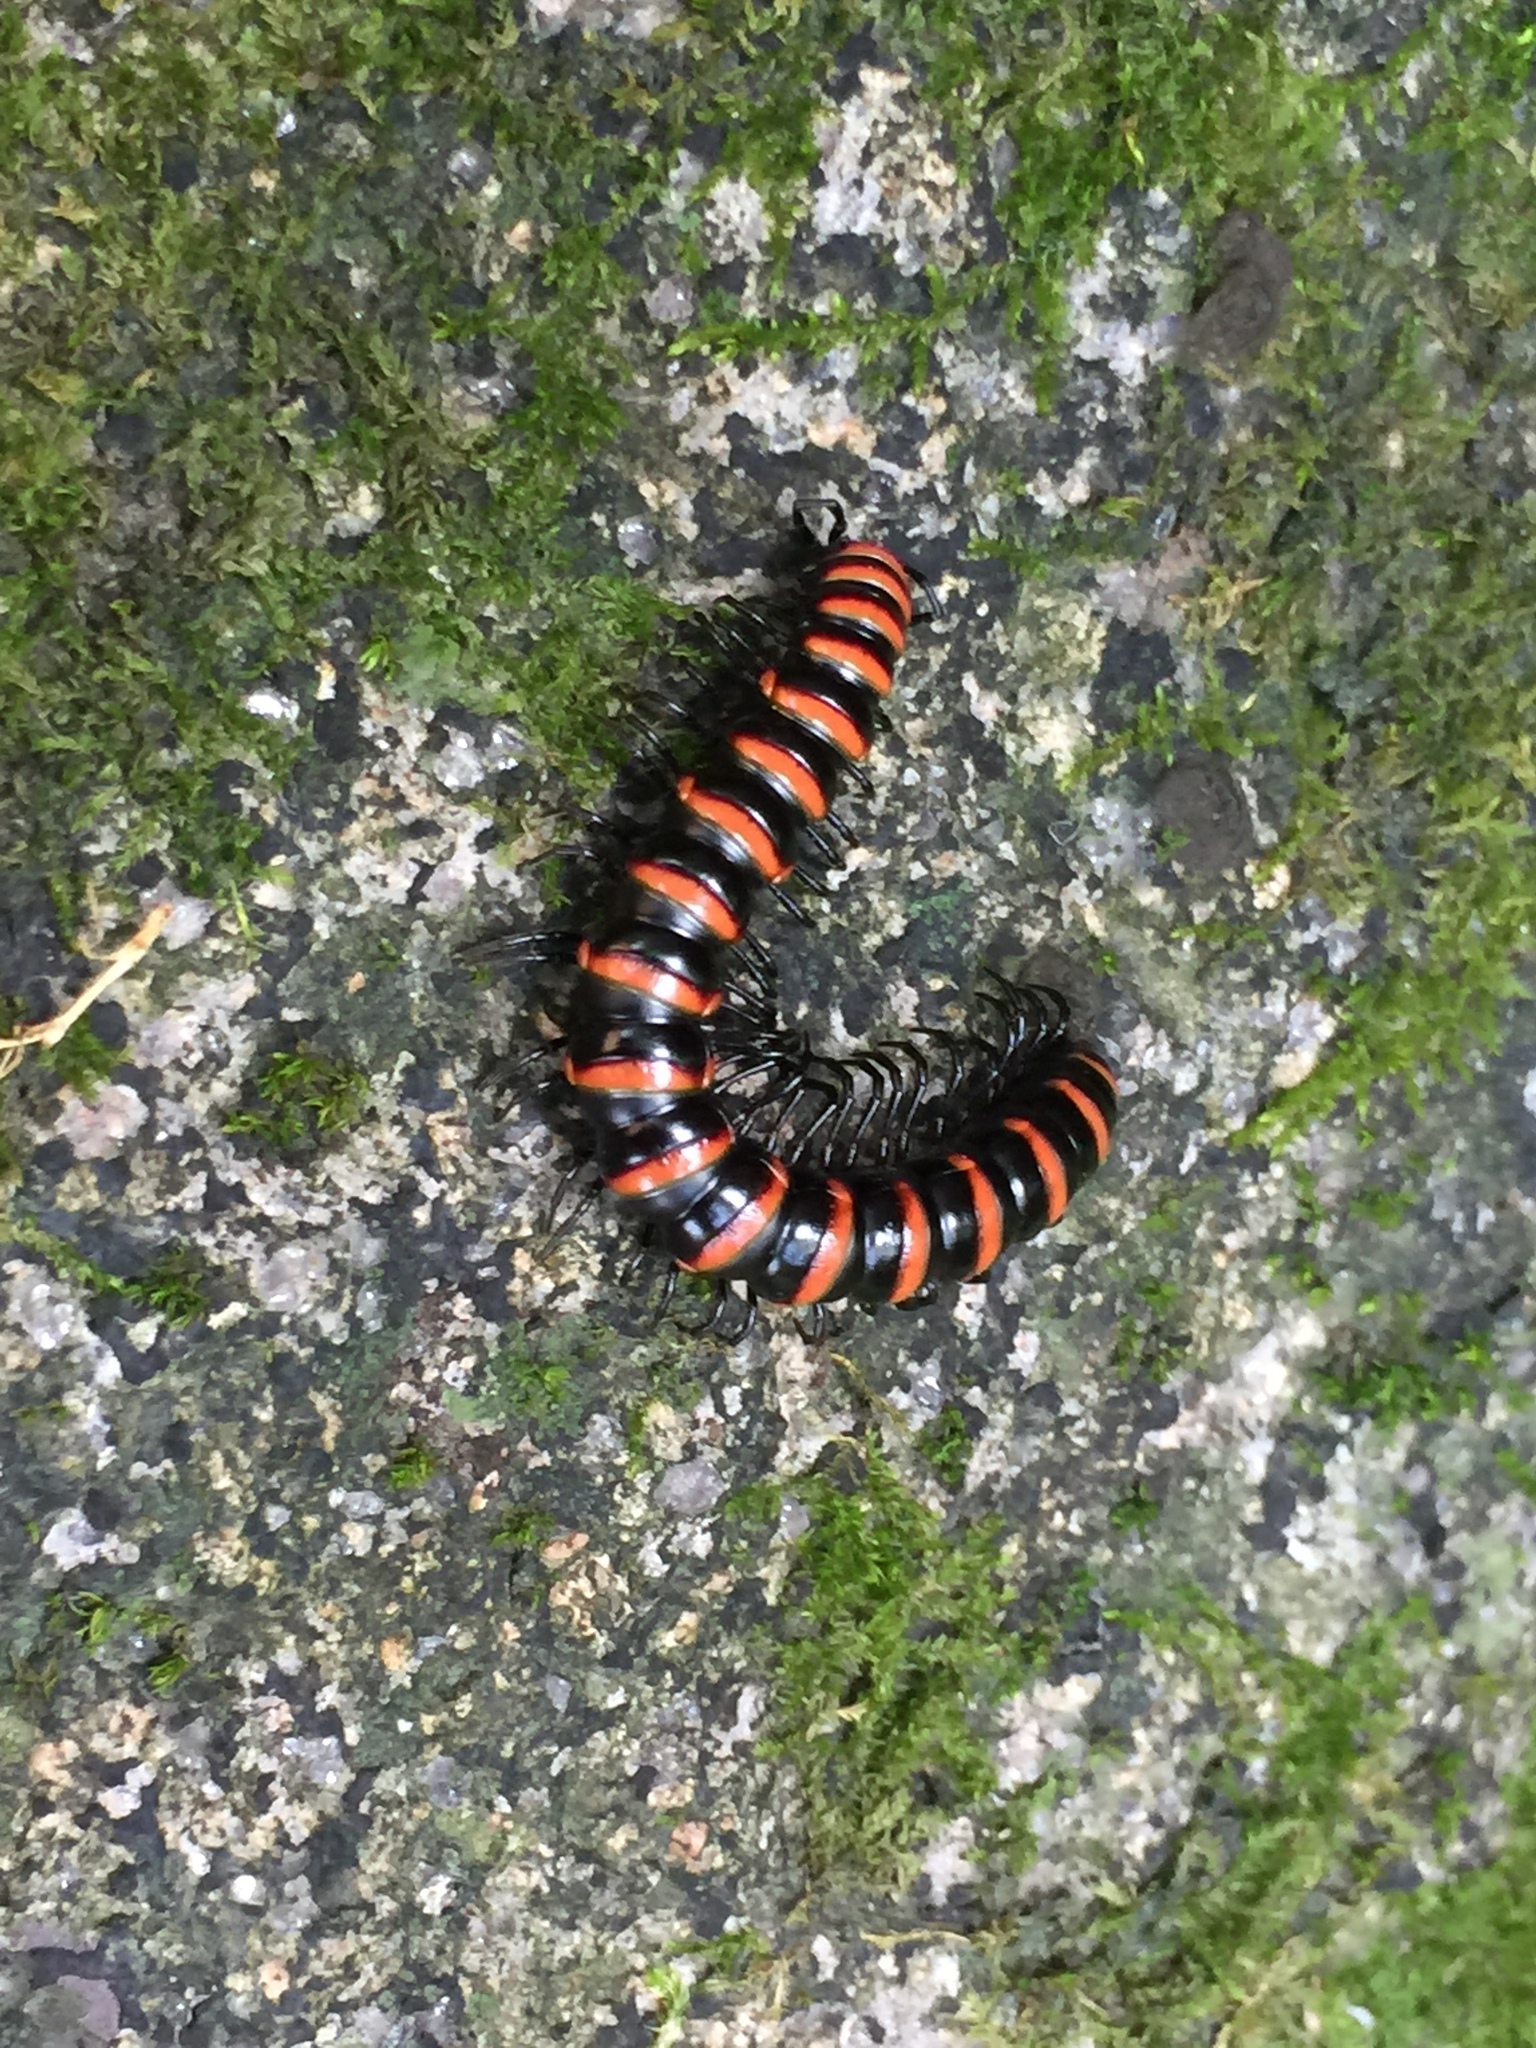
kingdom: Animalia
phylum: Arthropoda
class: Diplopoda
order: Polydesmida
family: Paradoxosomatidae
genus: Kronopolites
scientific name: Kronopolites swinhoei
